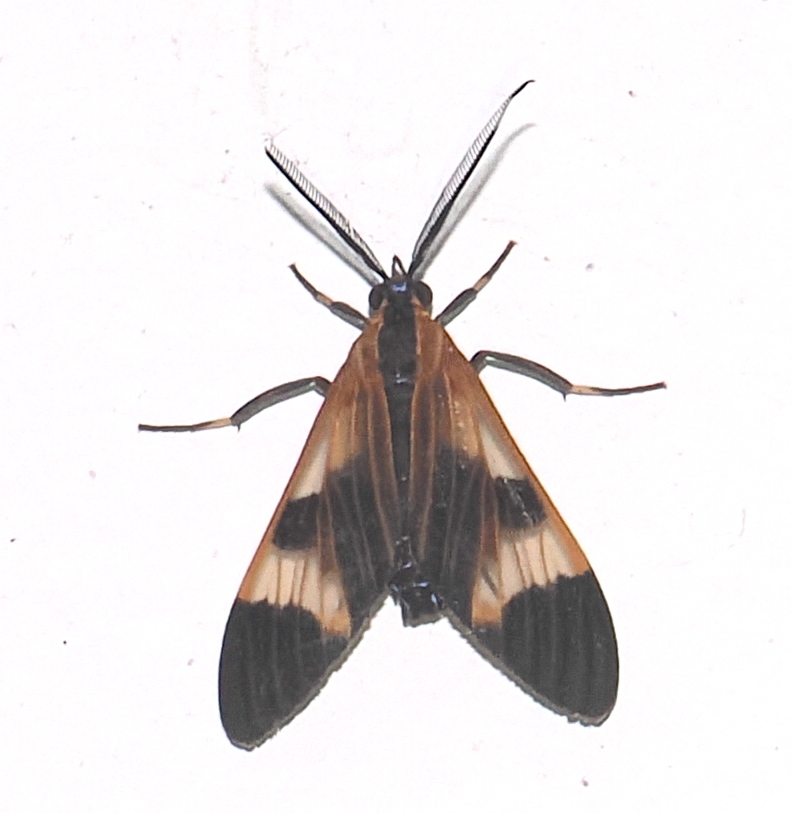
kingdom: Animalia
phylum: Arthropoda
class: Insecta
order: Lepidoptera
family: Erebidae
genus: Dycladia
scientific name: Dycladia vitrina
